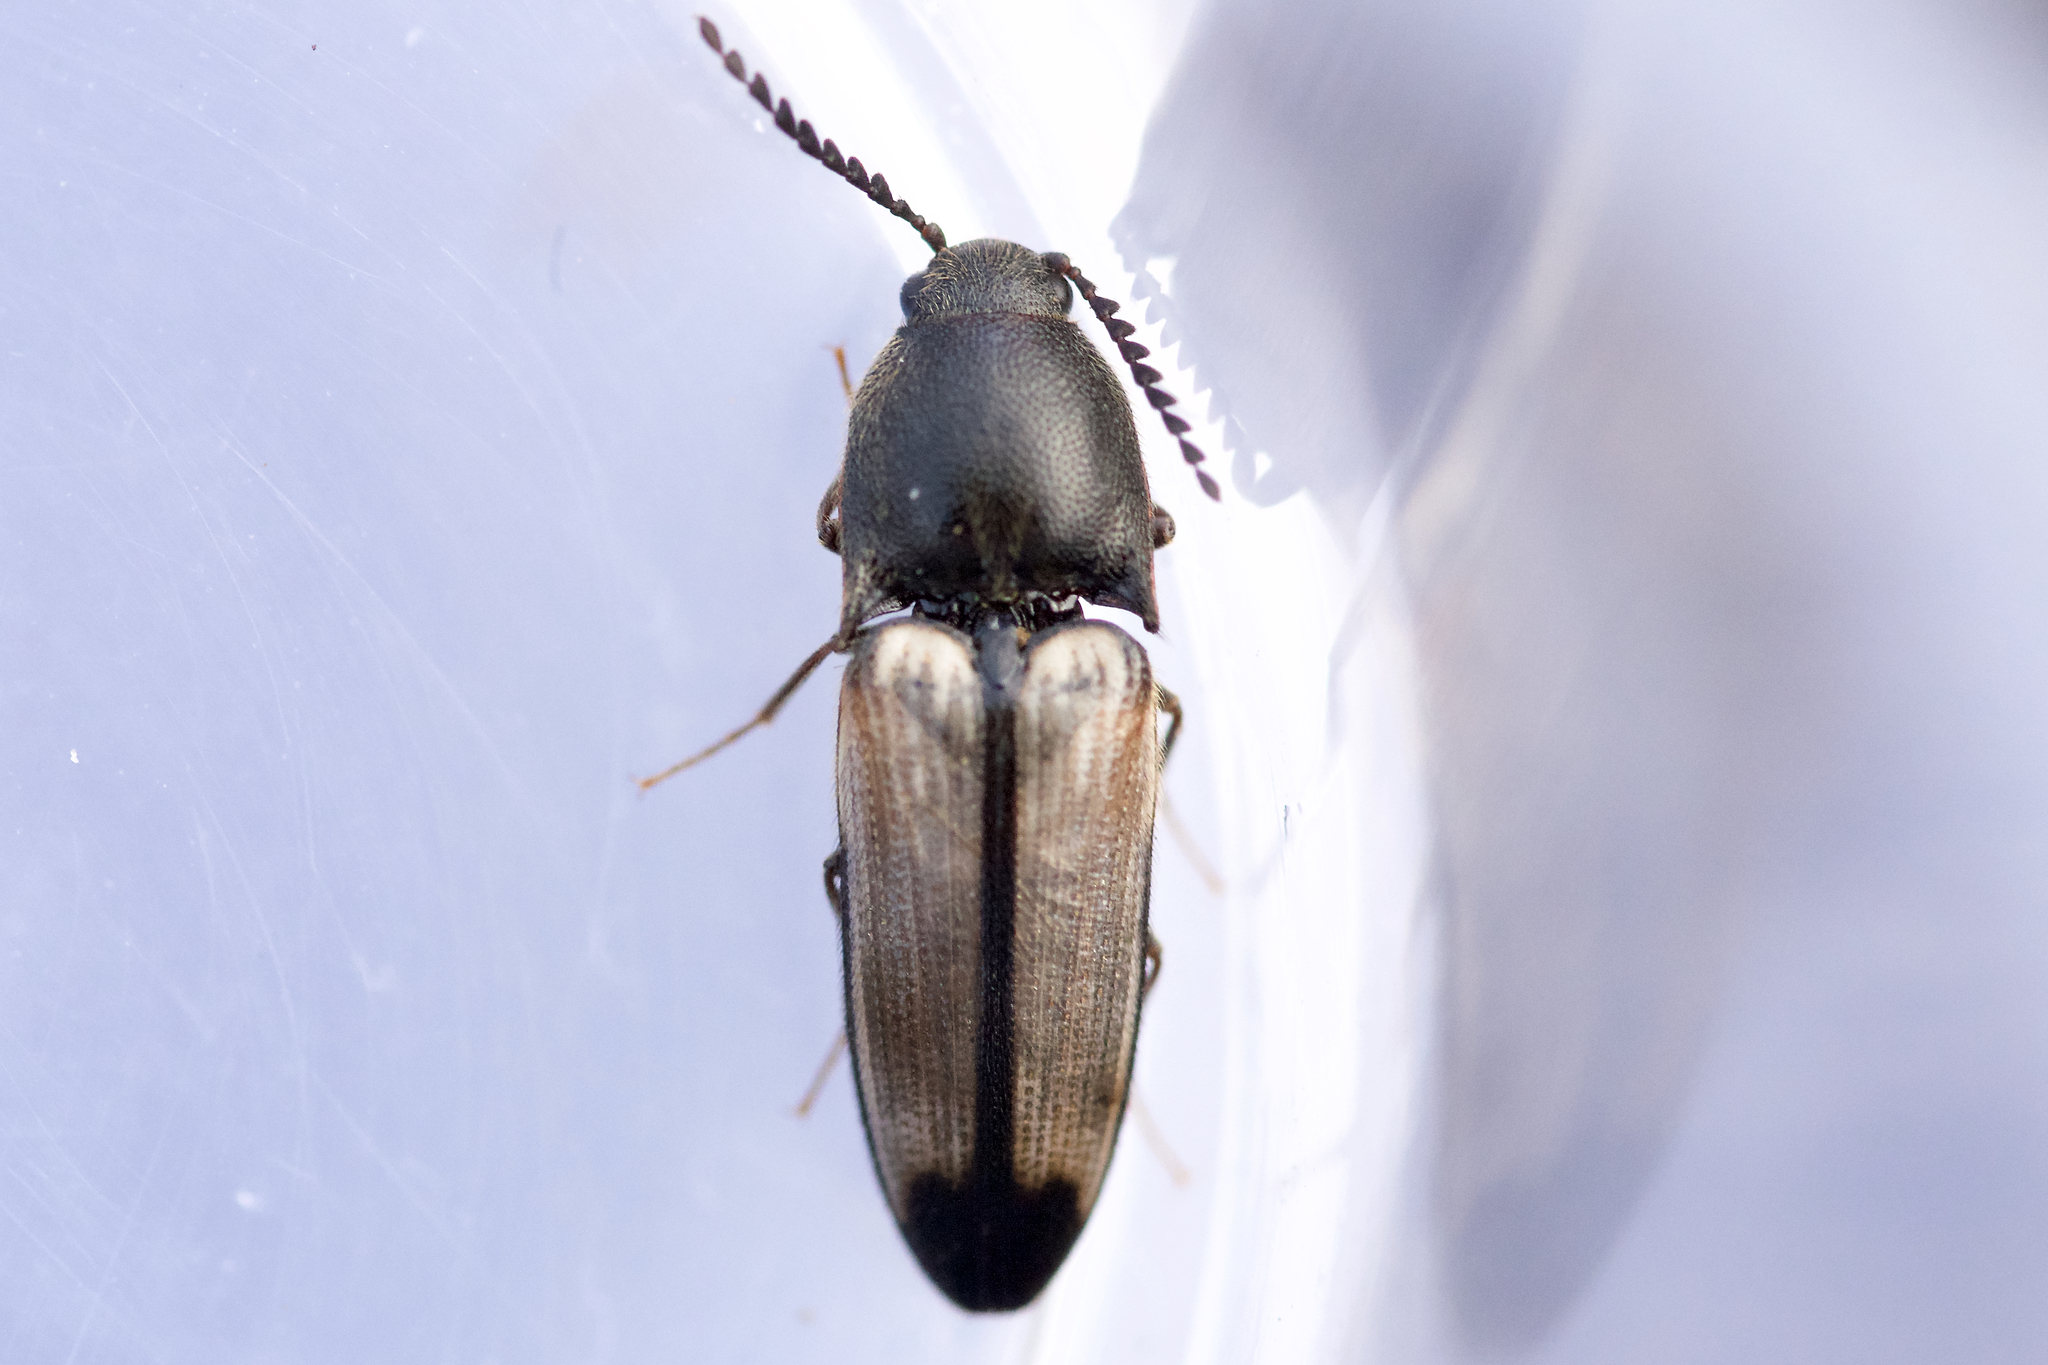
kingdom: Animalia
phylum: Arthropoda
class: Insecta
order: Coleoptera
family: Elateridae
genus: Ampedus
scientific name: Ampedus linteus
